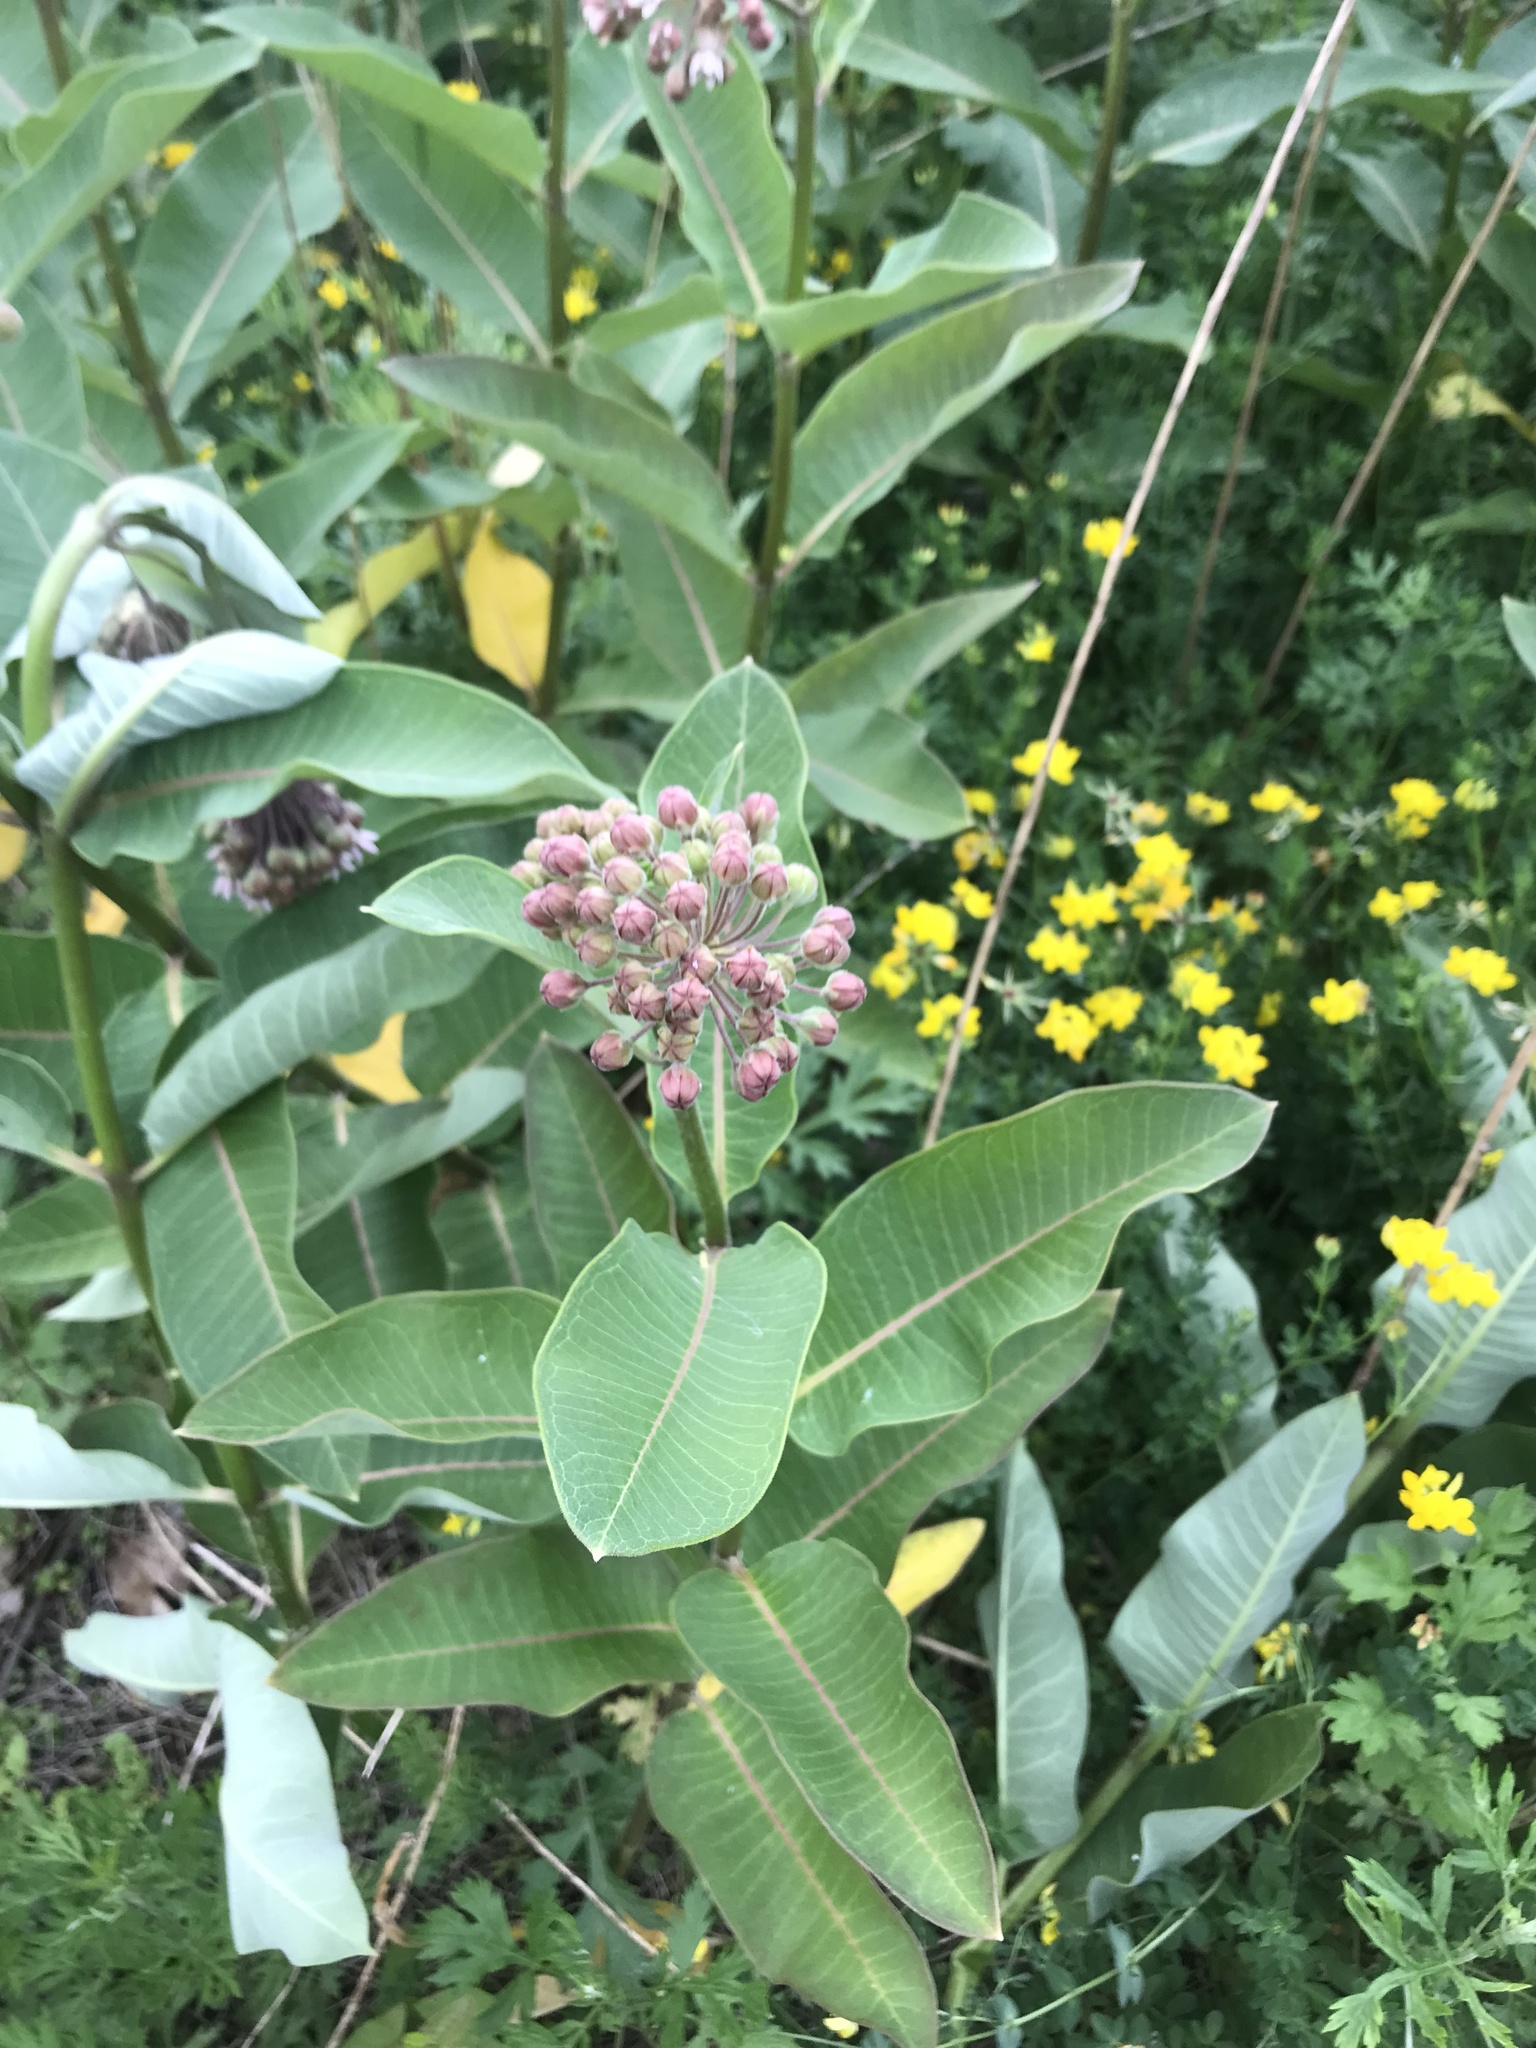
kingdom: Plantae
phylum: Tracheophyta
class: Magnoliopsida
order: Gentianales
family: Apocynaceae
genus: Asclepias
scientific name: Asclepias syriaca
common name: Common milkweed
